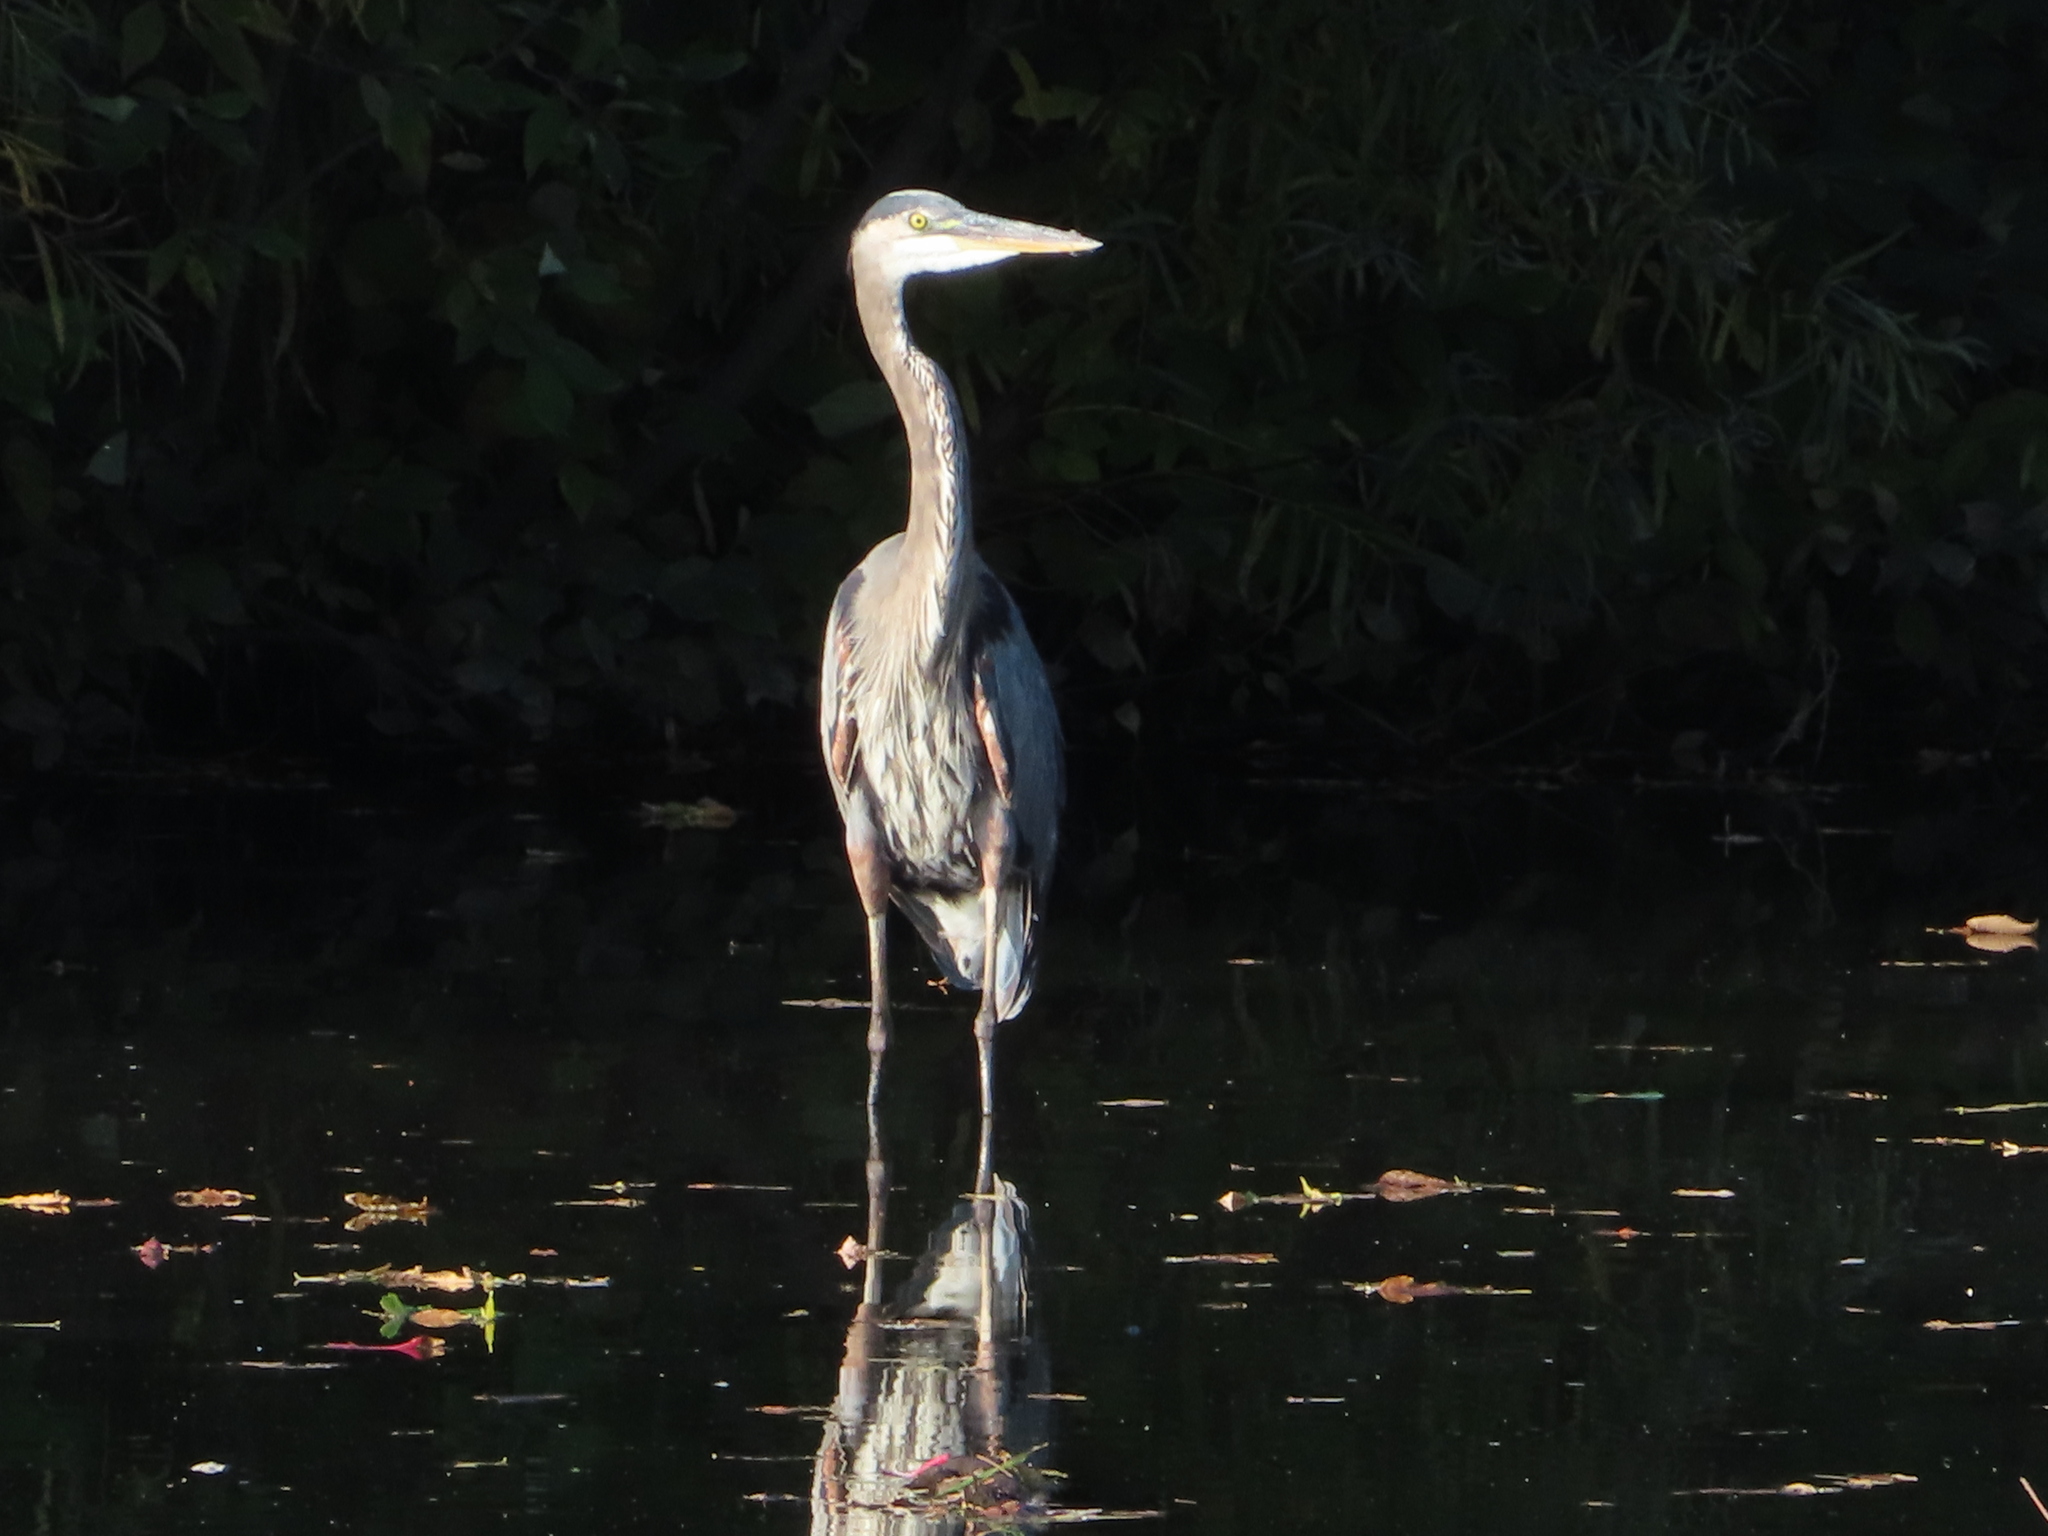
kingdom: Animalia
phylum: Chordata
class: Aves
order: Pelecaniformes
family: Ardeidae
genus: Ardea
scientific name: Ardea herodias
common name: Great blue heron
